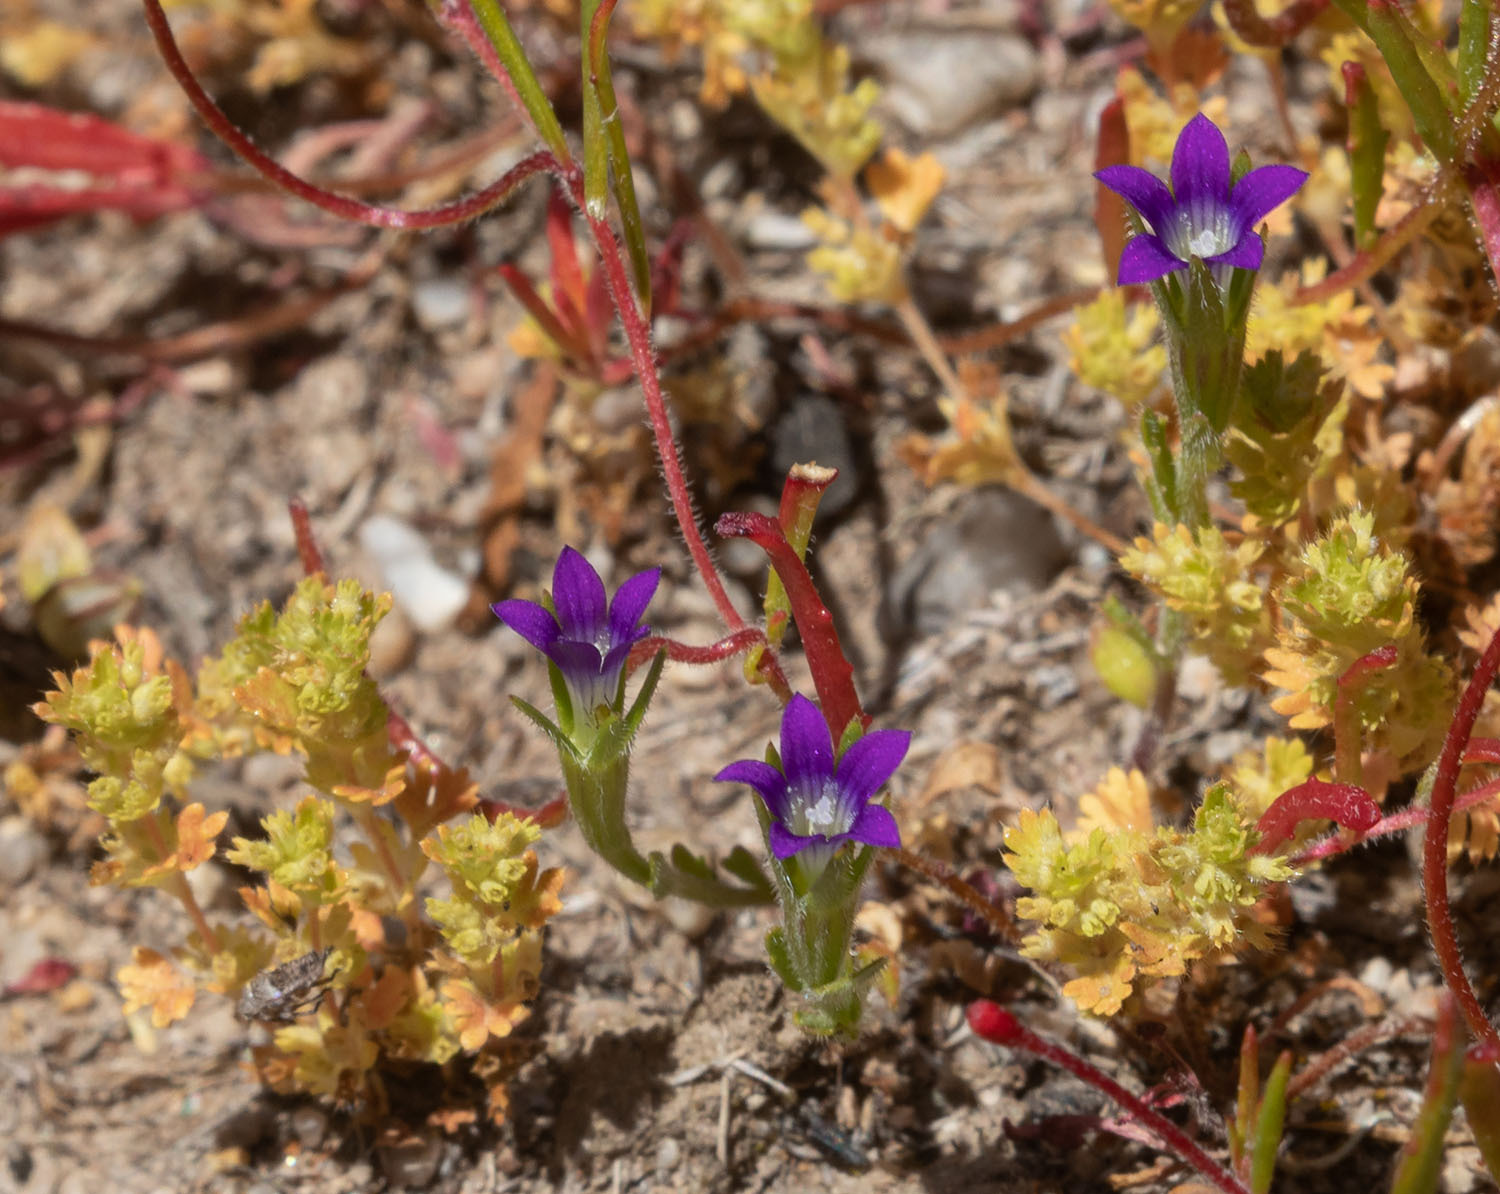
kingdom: Plantae
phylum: Tracheophyta
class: Magnoliopsida
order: Asterales
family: Campanulaceae
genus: Githopsis
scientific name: Githopsis specularioides
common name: Common bluecup
